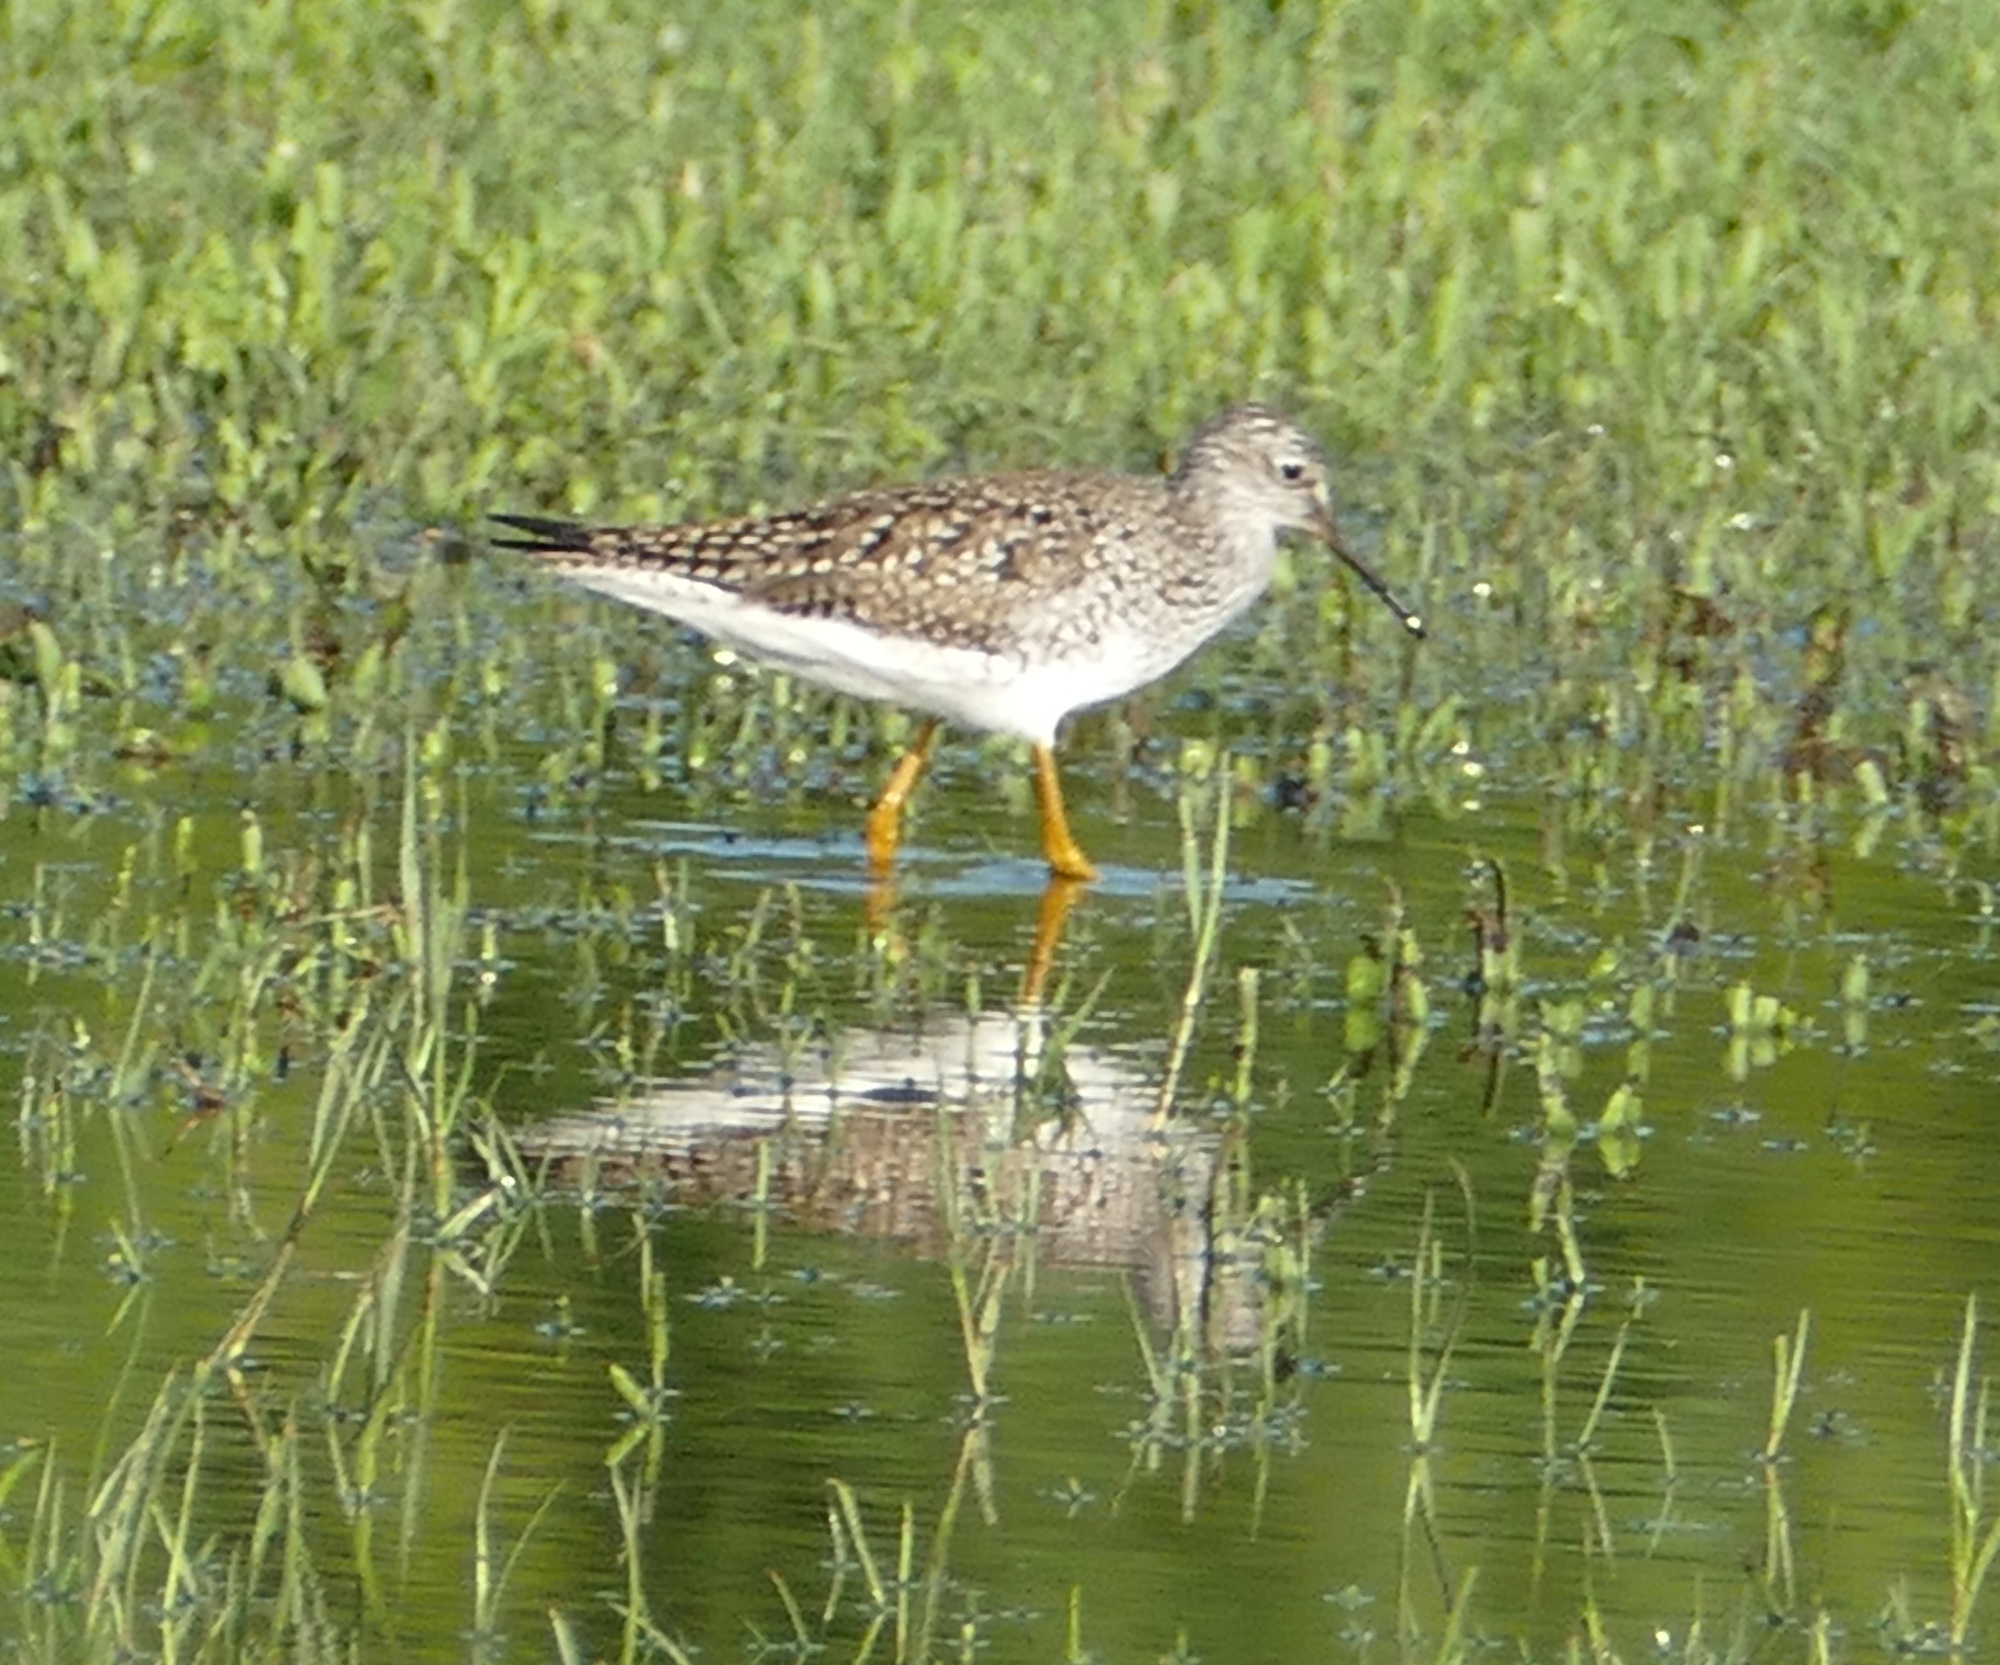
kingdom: Animalia
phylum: Chordata
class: Aves
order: Charadriiformes
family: Scolopacidae
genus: Tringa
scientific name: Tringa flavipes
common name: Lesser yellowlegs
